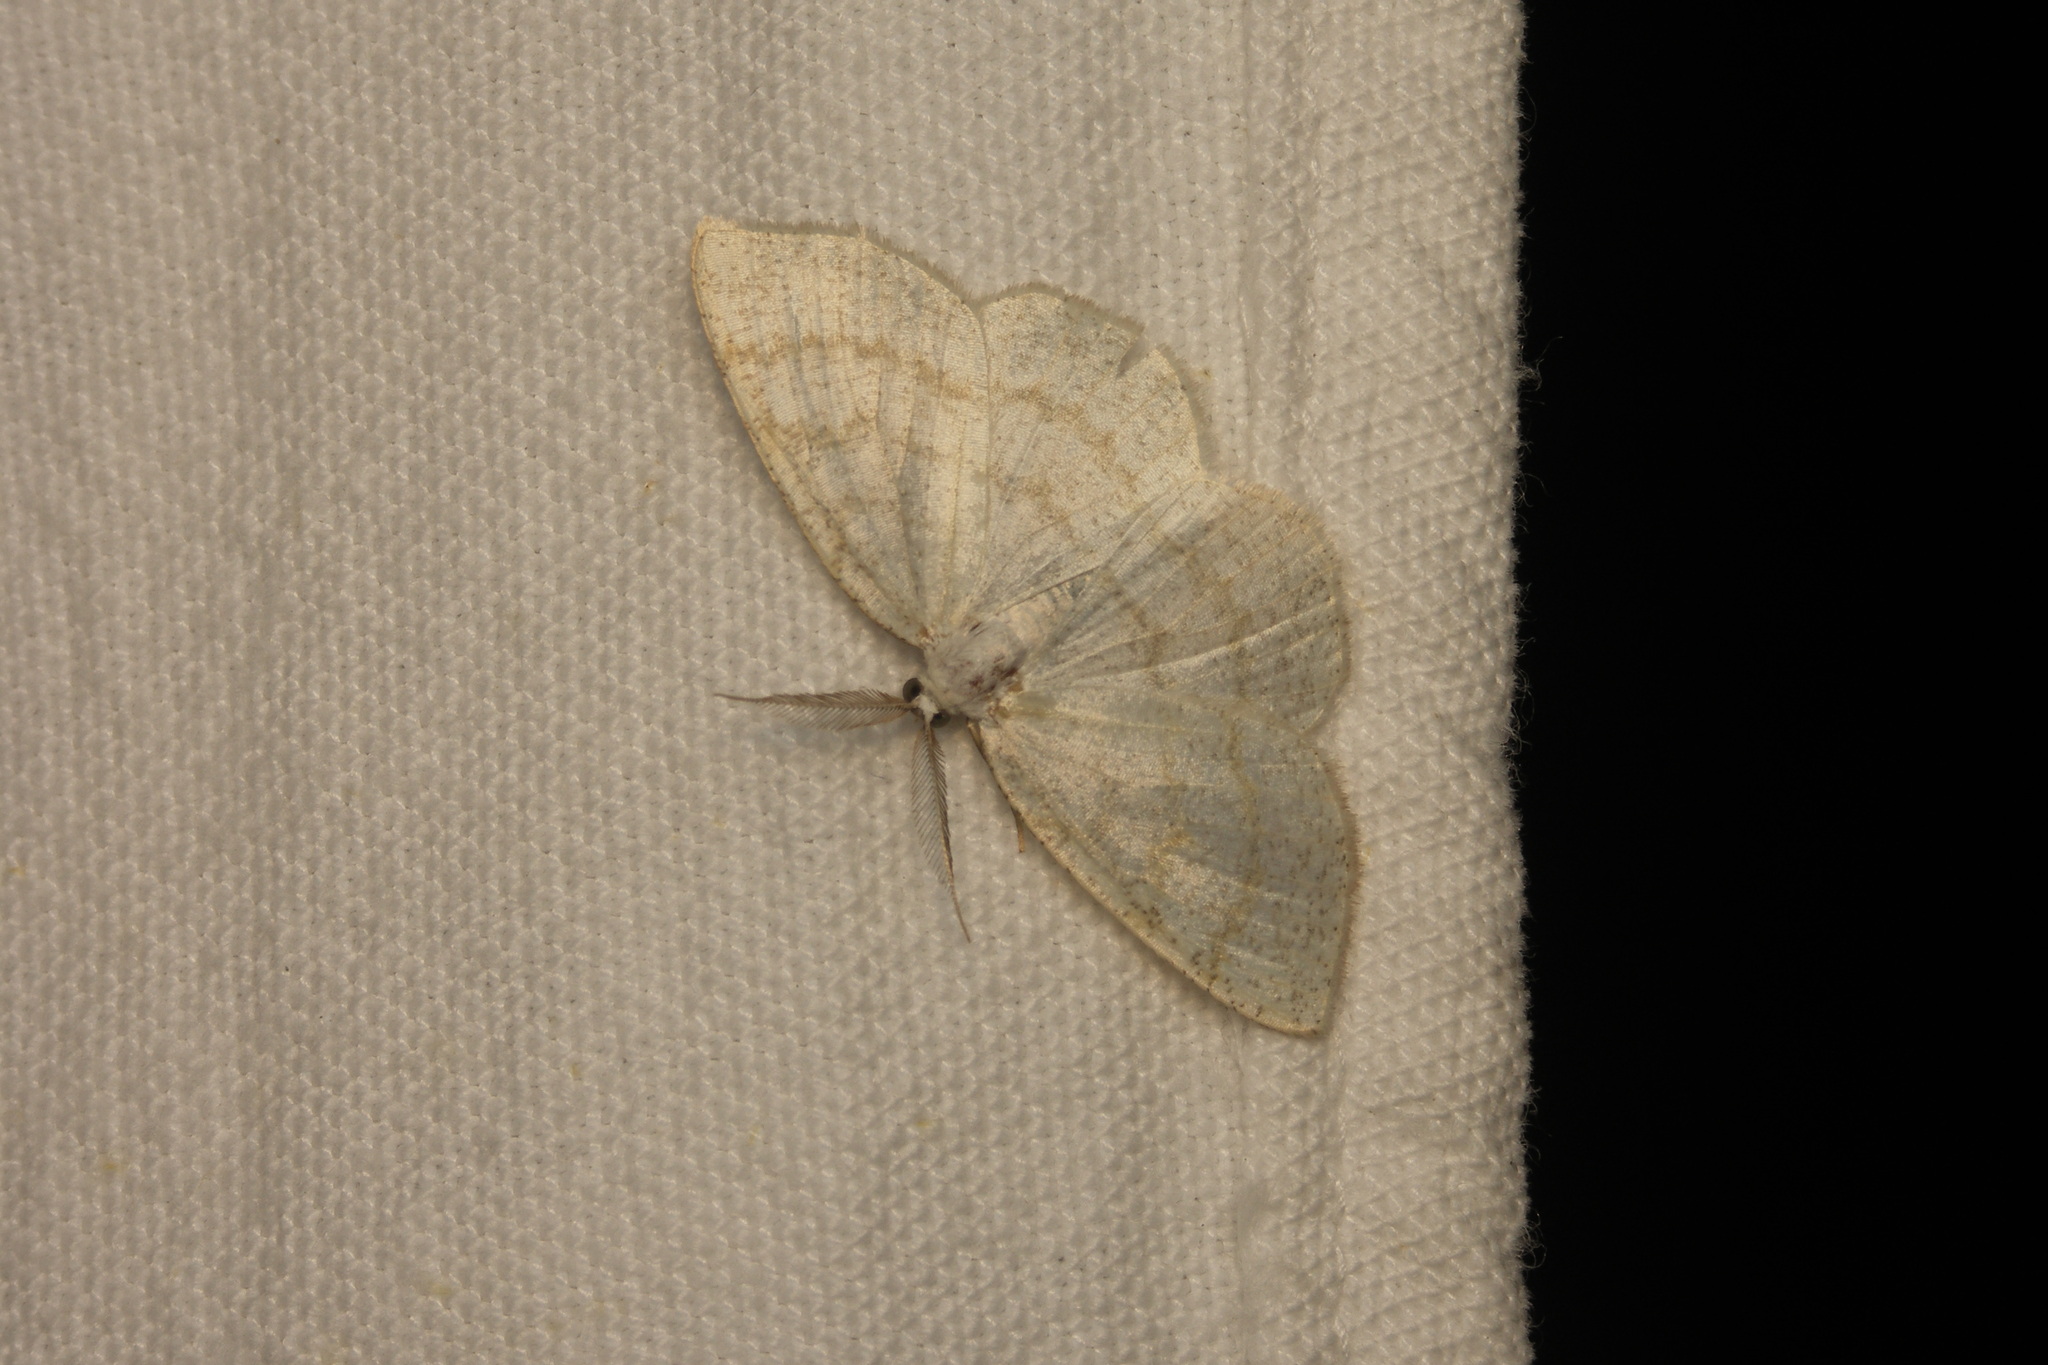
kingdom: Animalia
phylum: Arthropoda
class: Insecta
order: Lepidoptera
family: Geometridae
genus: Cabera
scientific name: Cabera exanthemata
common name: Common wave
